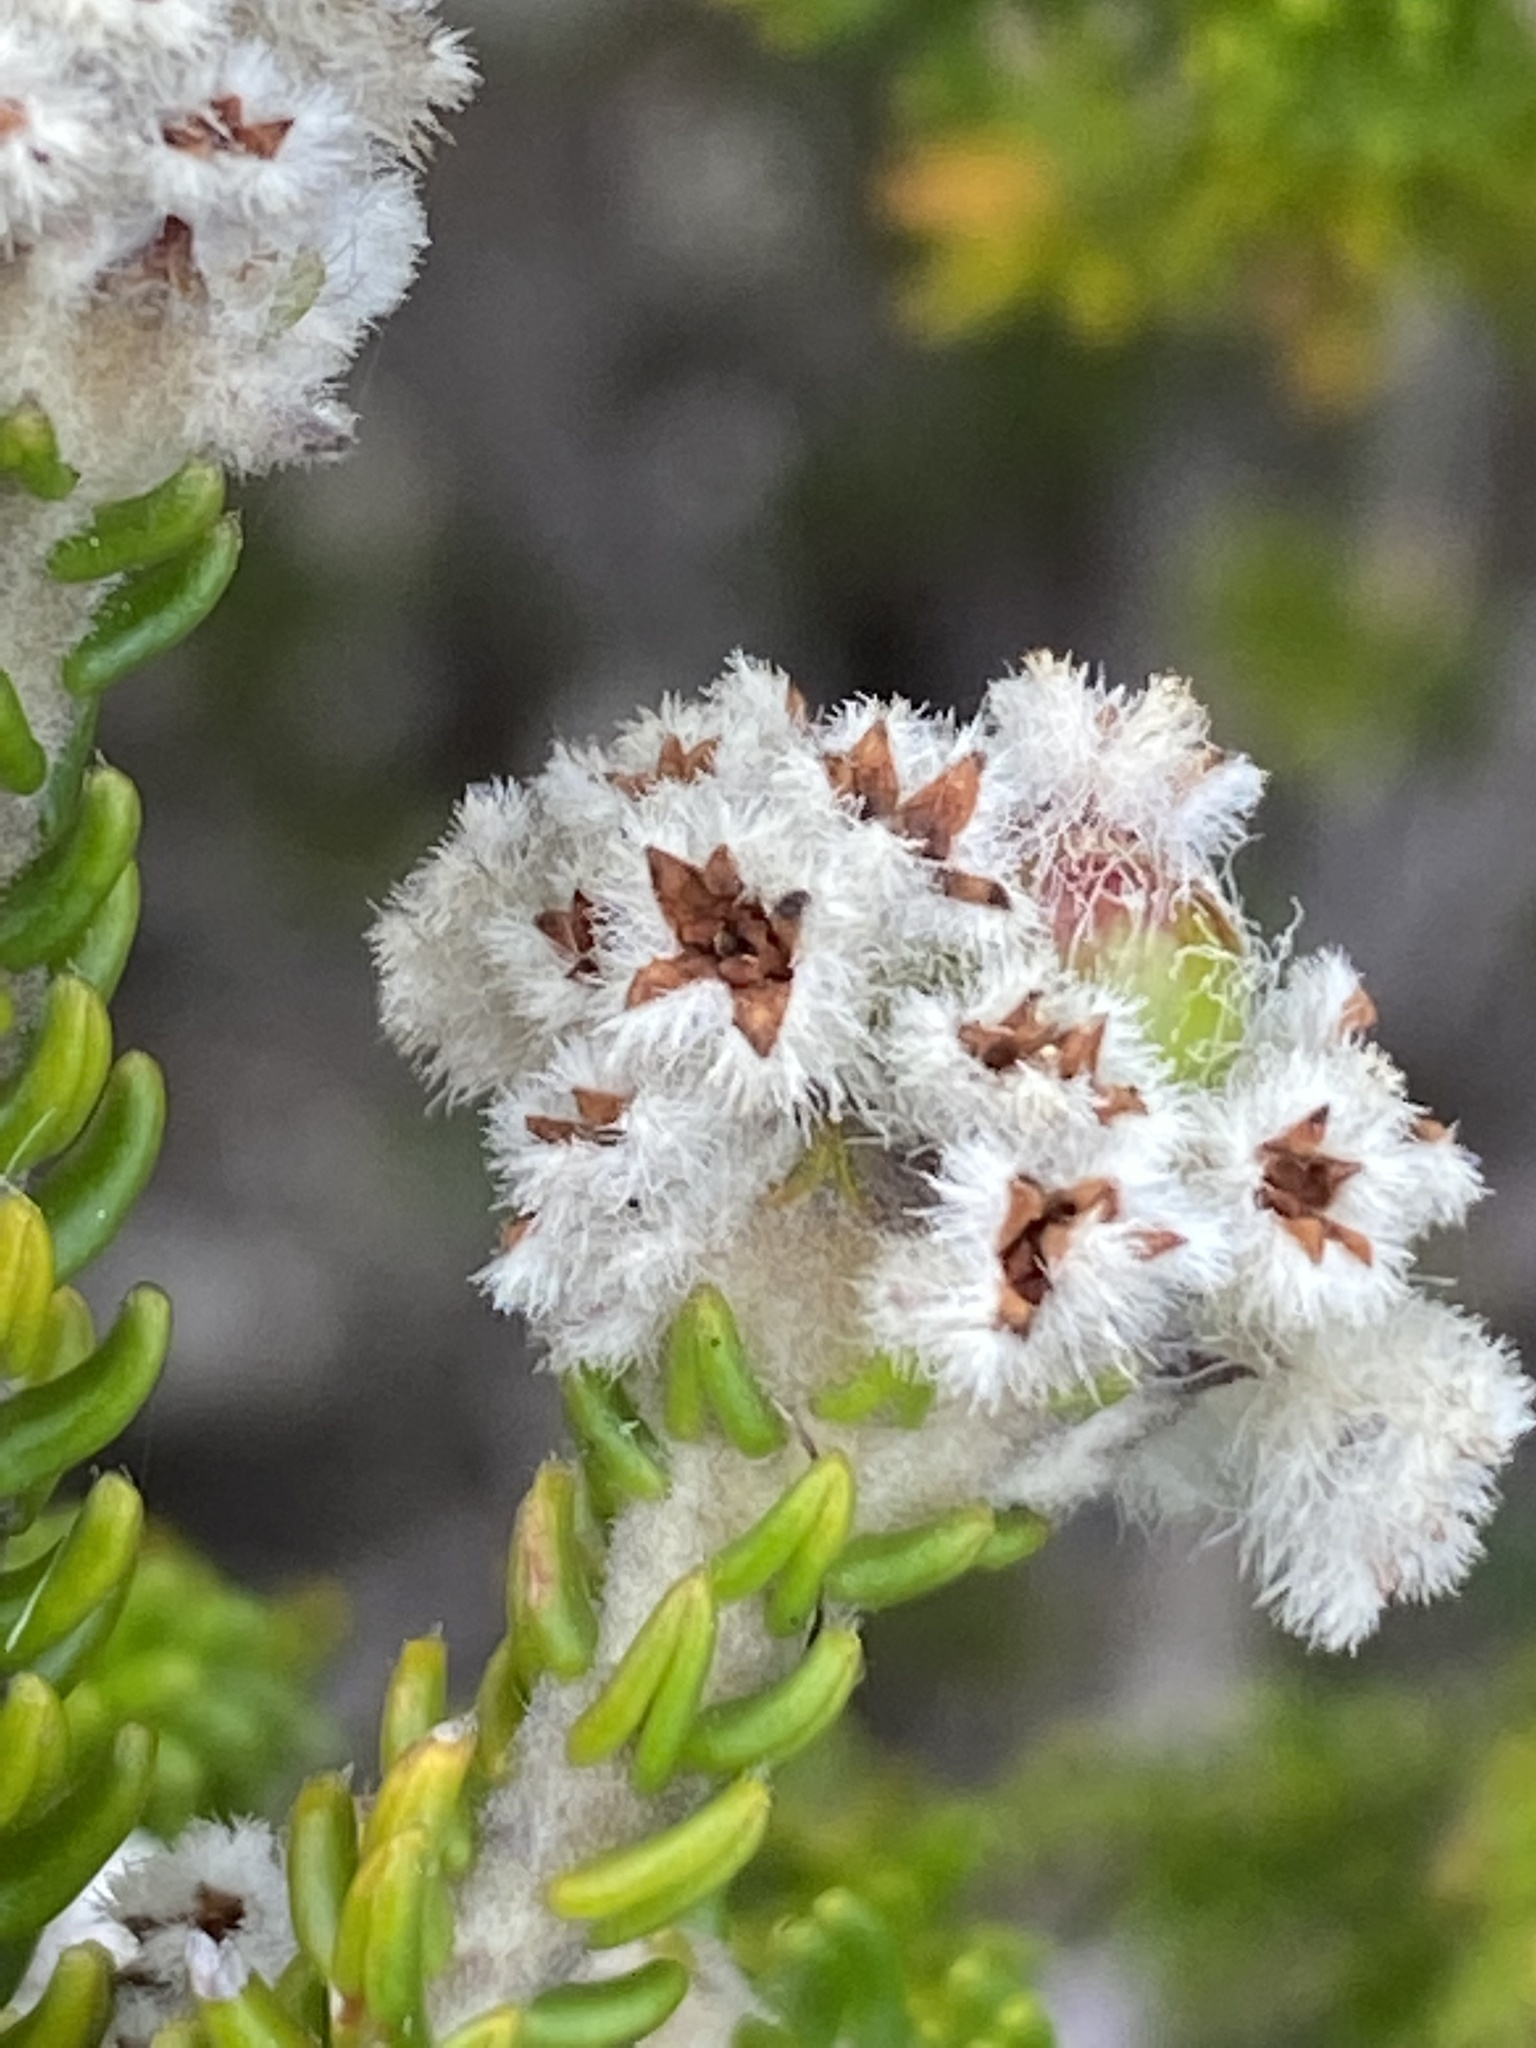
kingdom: Plantae
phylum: Tracheophyta
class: Magnoliopsida
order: Rosales
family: Rhamnaceae
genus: Phylica
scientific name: Phylica laevigata
